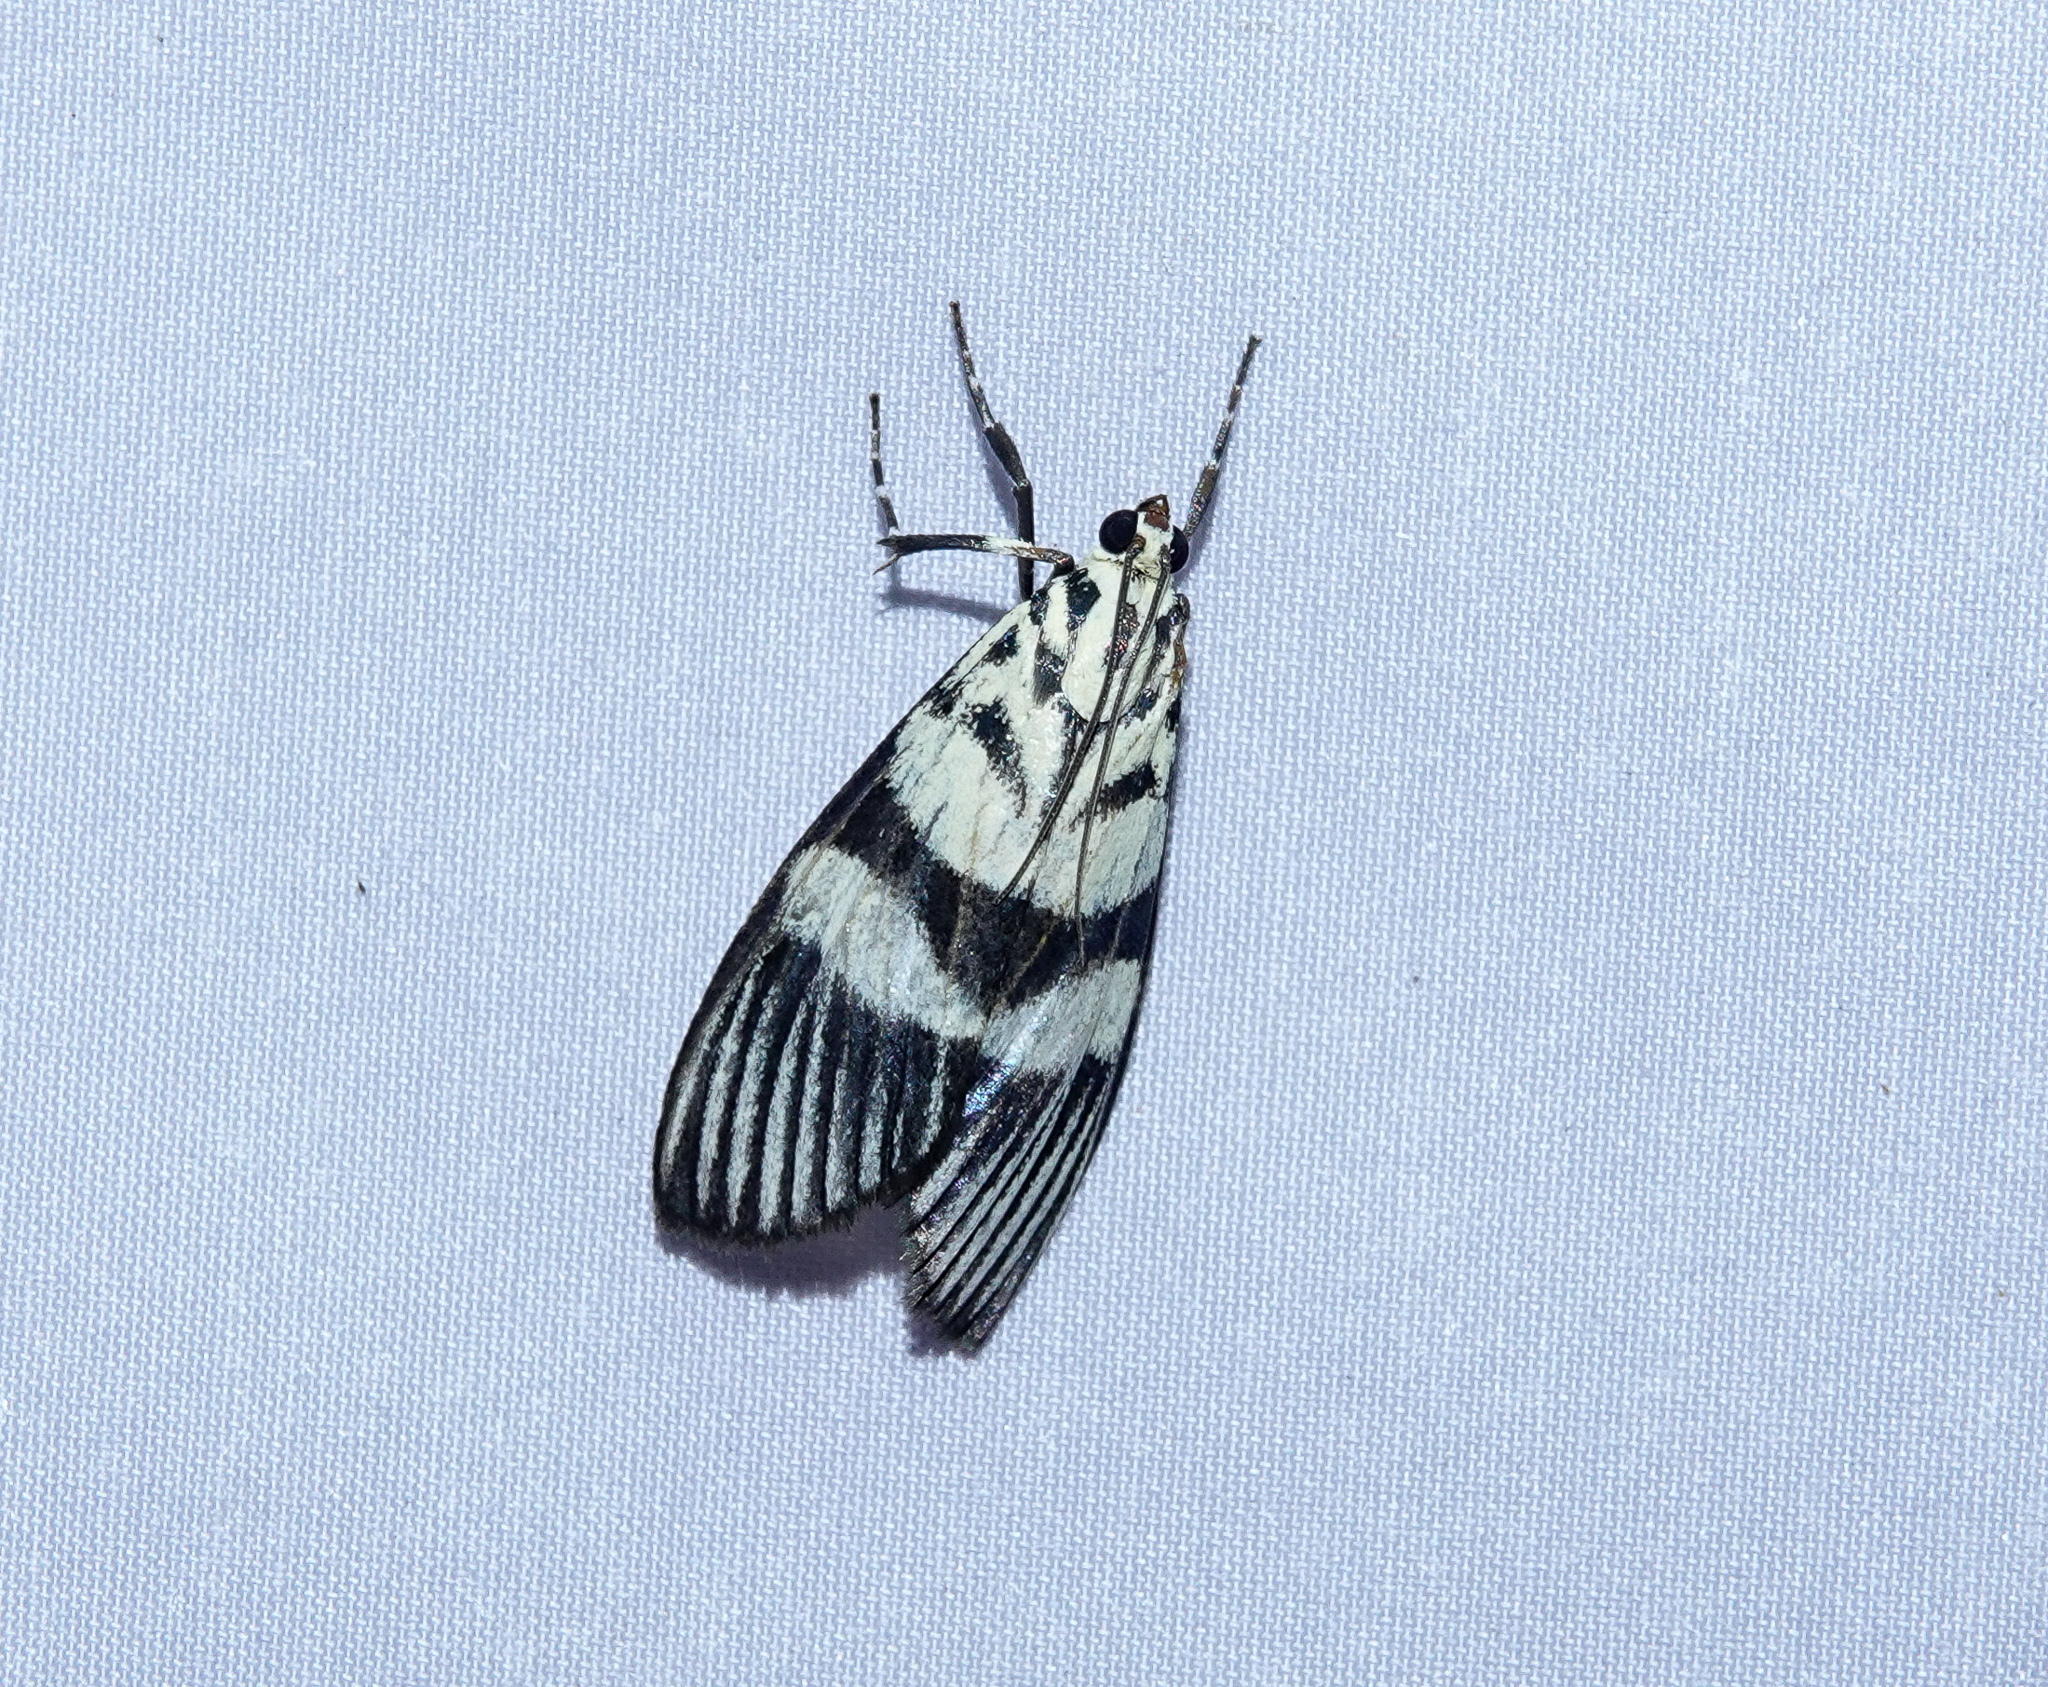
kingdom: Animalia
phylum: Arthropoda
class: Insecta
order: Lepidoptera
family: Crambidae
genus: Heortia
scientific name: Heortia vitessoides
